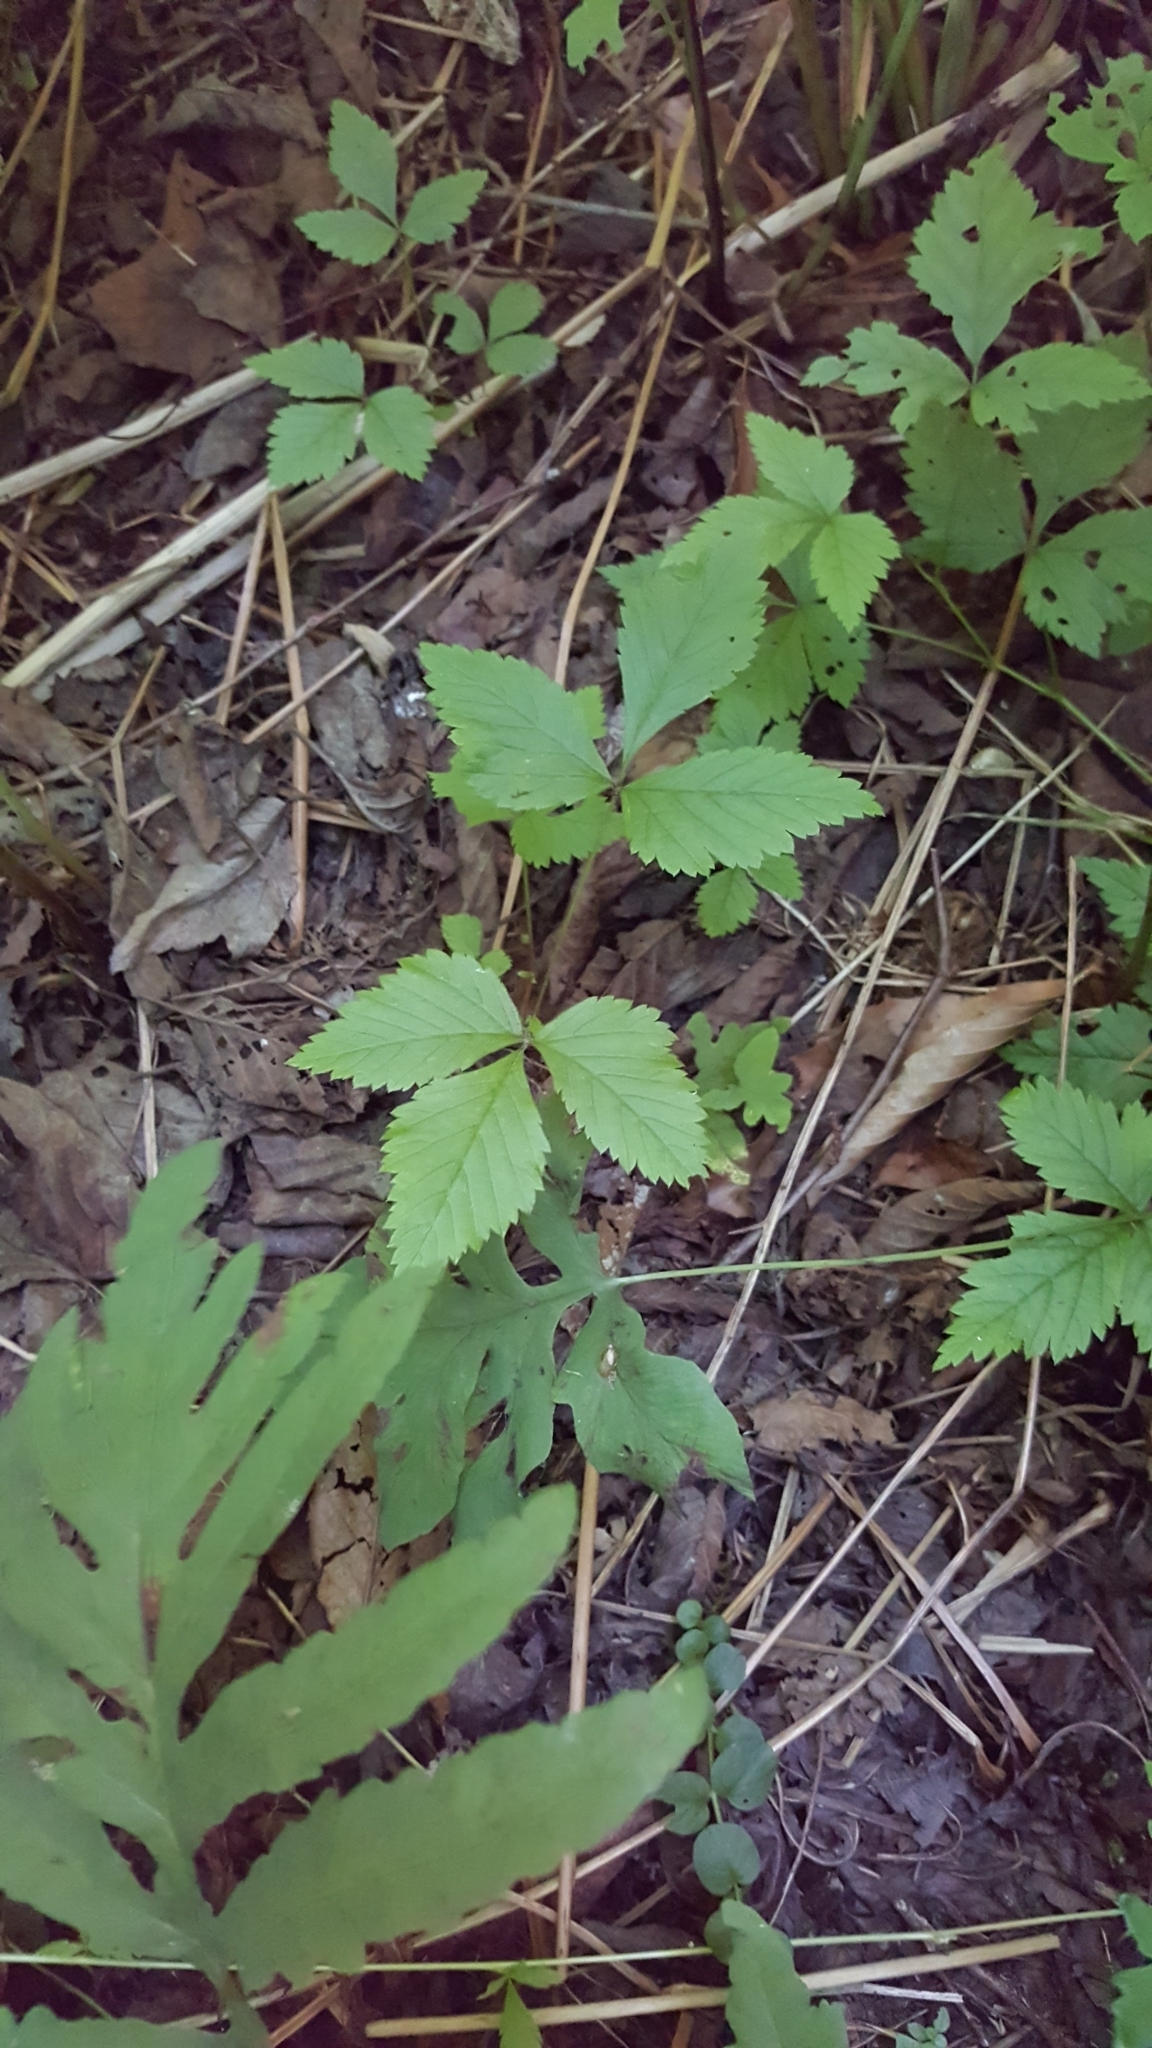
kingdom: Plantae
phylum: Tracheophyta
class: Magnoliopsida
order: Rosales
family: Rosaceae
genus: Rubus
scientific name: Rubus pubescens
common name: Dwarf raspberry
